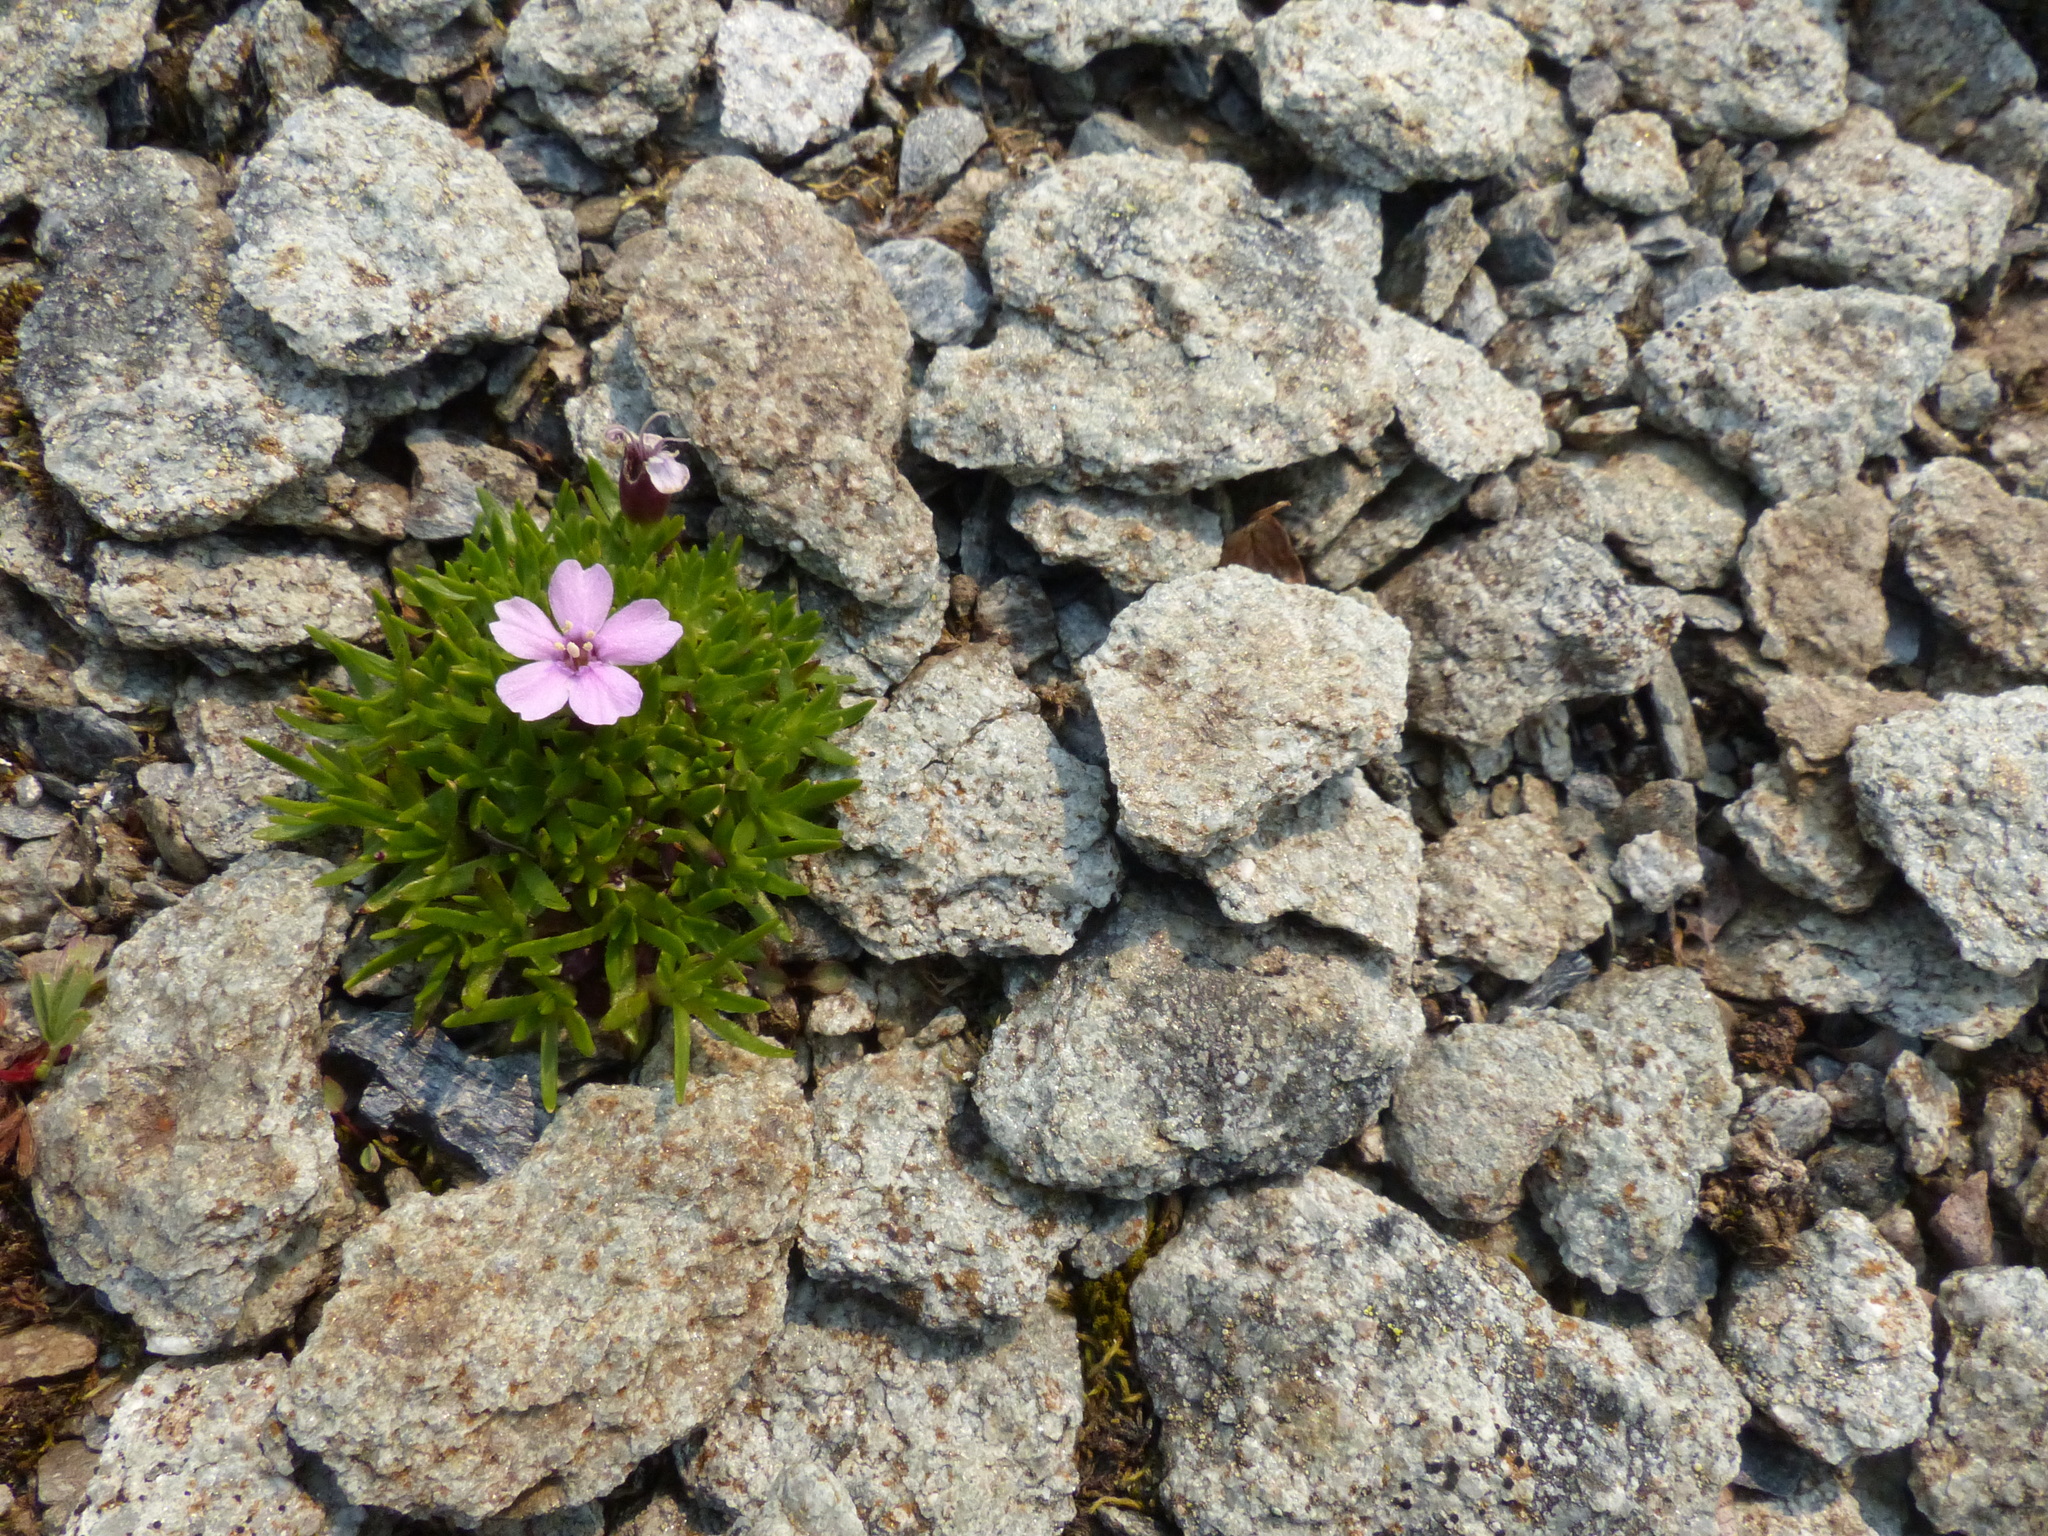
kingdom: Plantae
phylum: Tracheophyta
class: Magnoliopsida
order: Caryophyllales
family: Caryophyllaceae
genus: Silene
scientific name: Silene acaulis
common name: Moss campion
